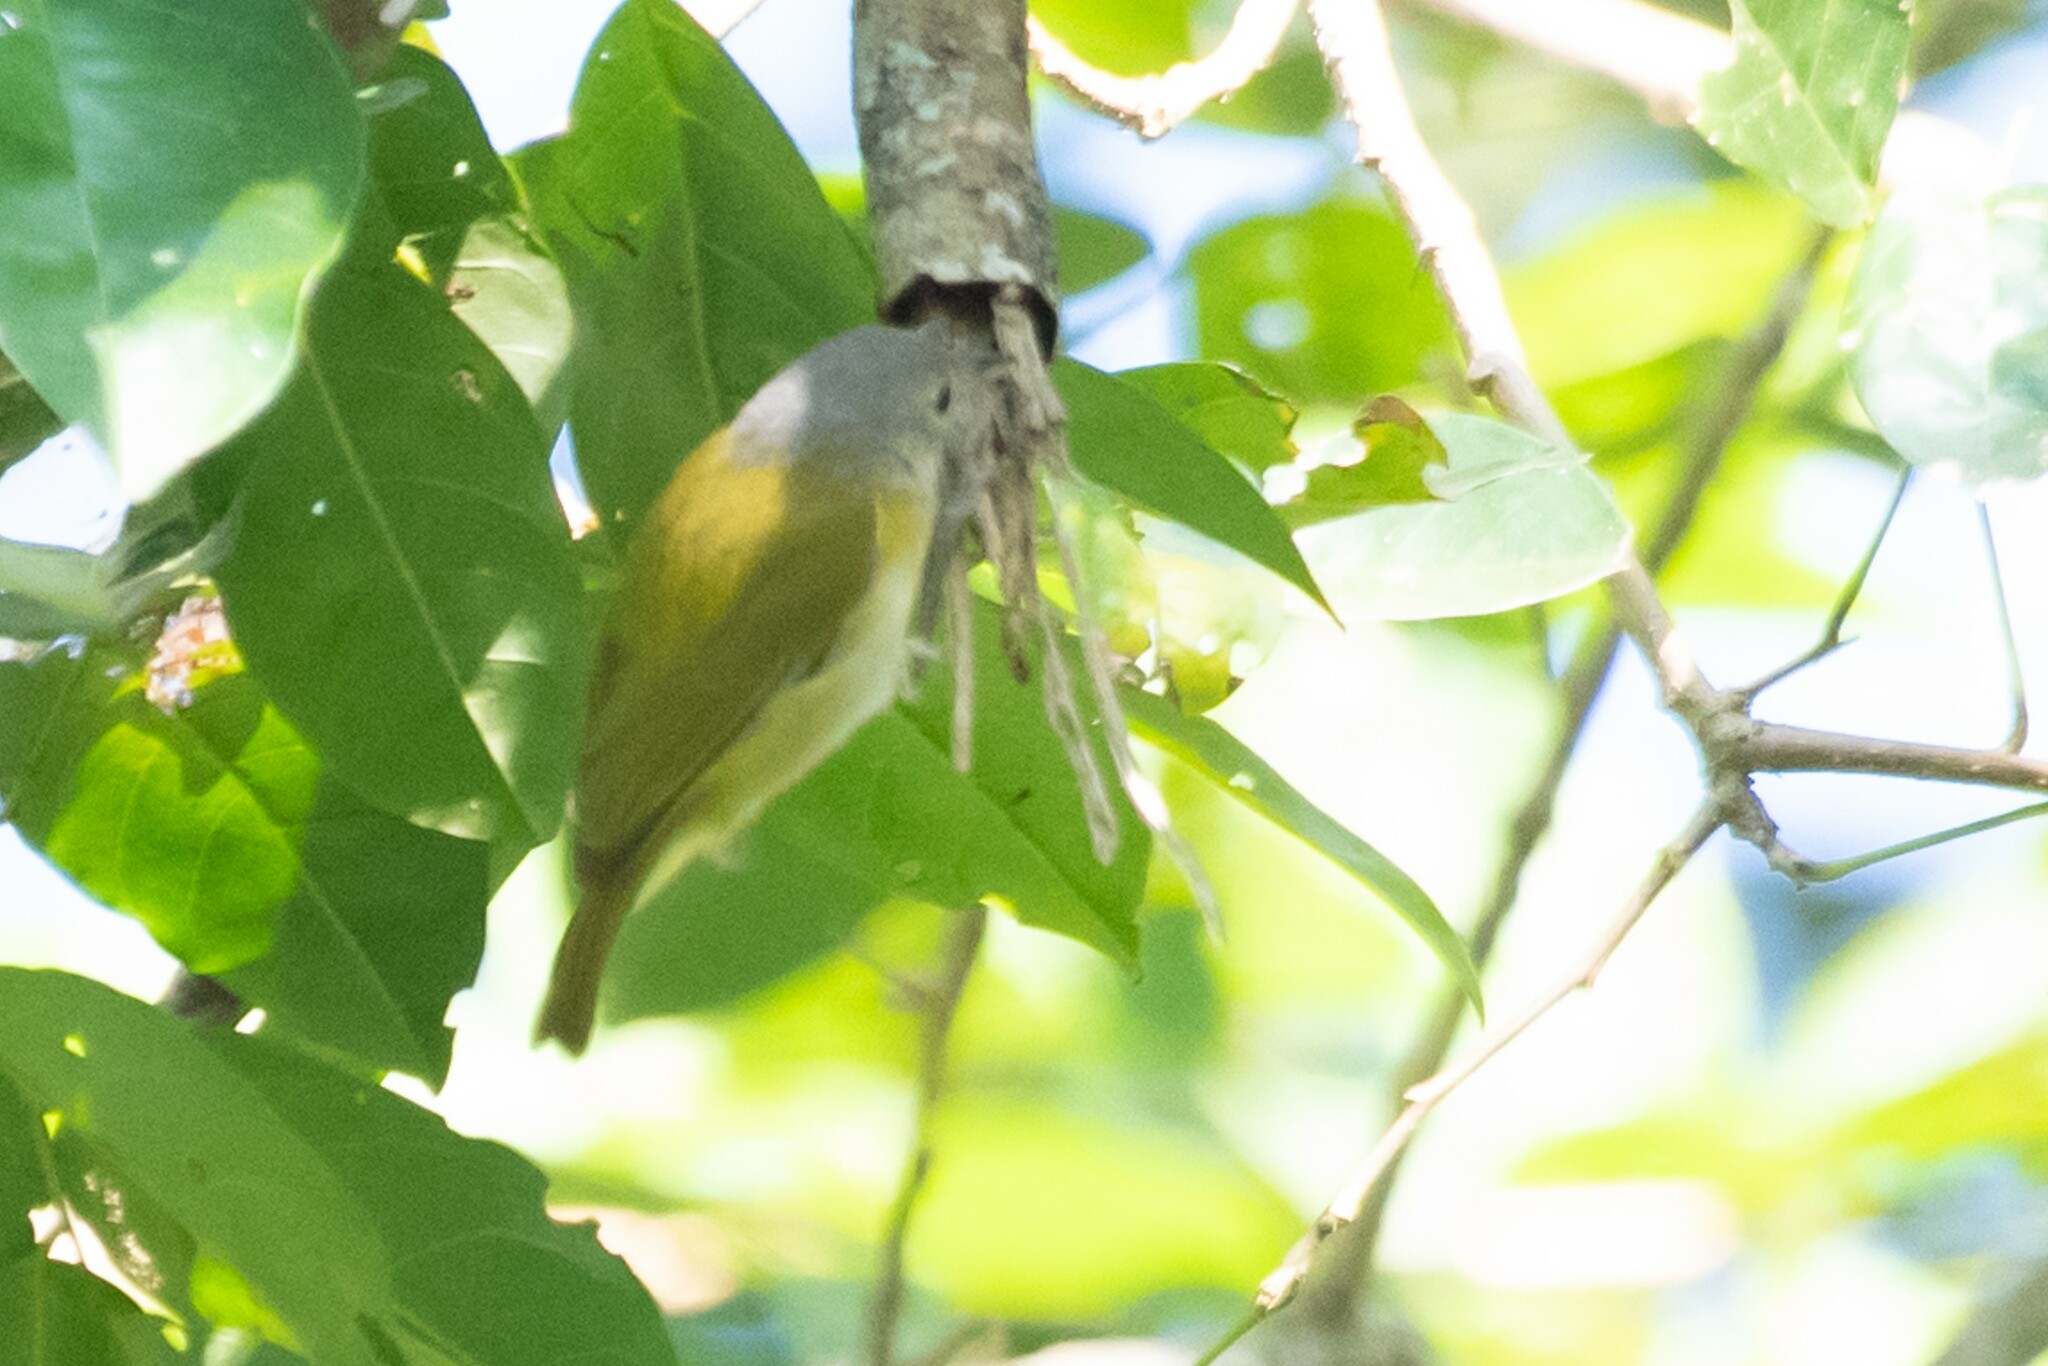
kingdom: Animalia
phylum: Chordata
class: Aves
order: Passeriformes
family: Vireonidae
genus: Hylophilus
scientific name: Hylophilus decurtatus
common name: Lesser greenlet
